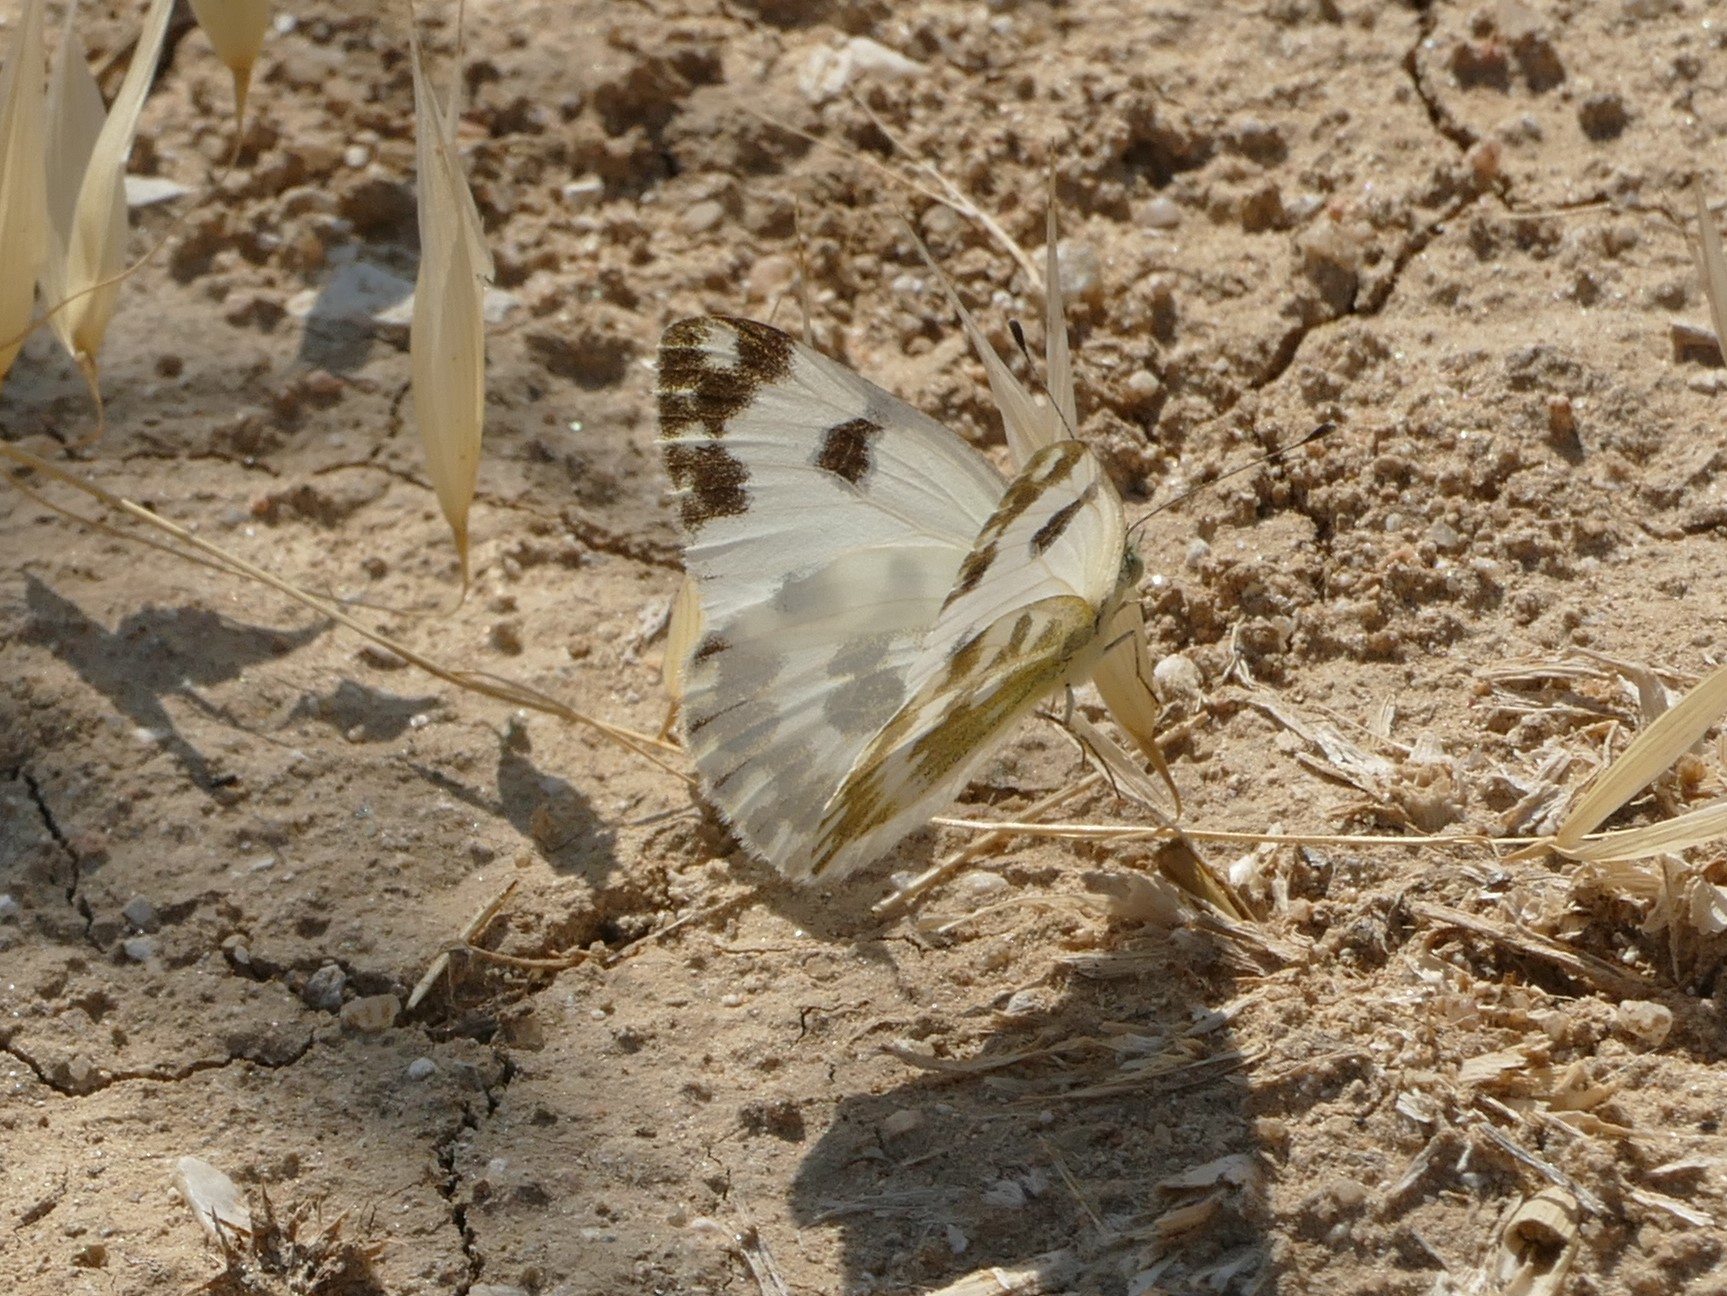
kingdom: Animalia
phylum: Arthropoda
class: Insecta
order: Lepidoptera
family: Pieridae
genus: Pontia
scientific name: Pontia daplidice
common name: Bath white
